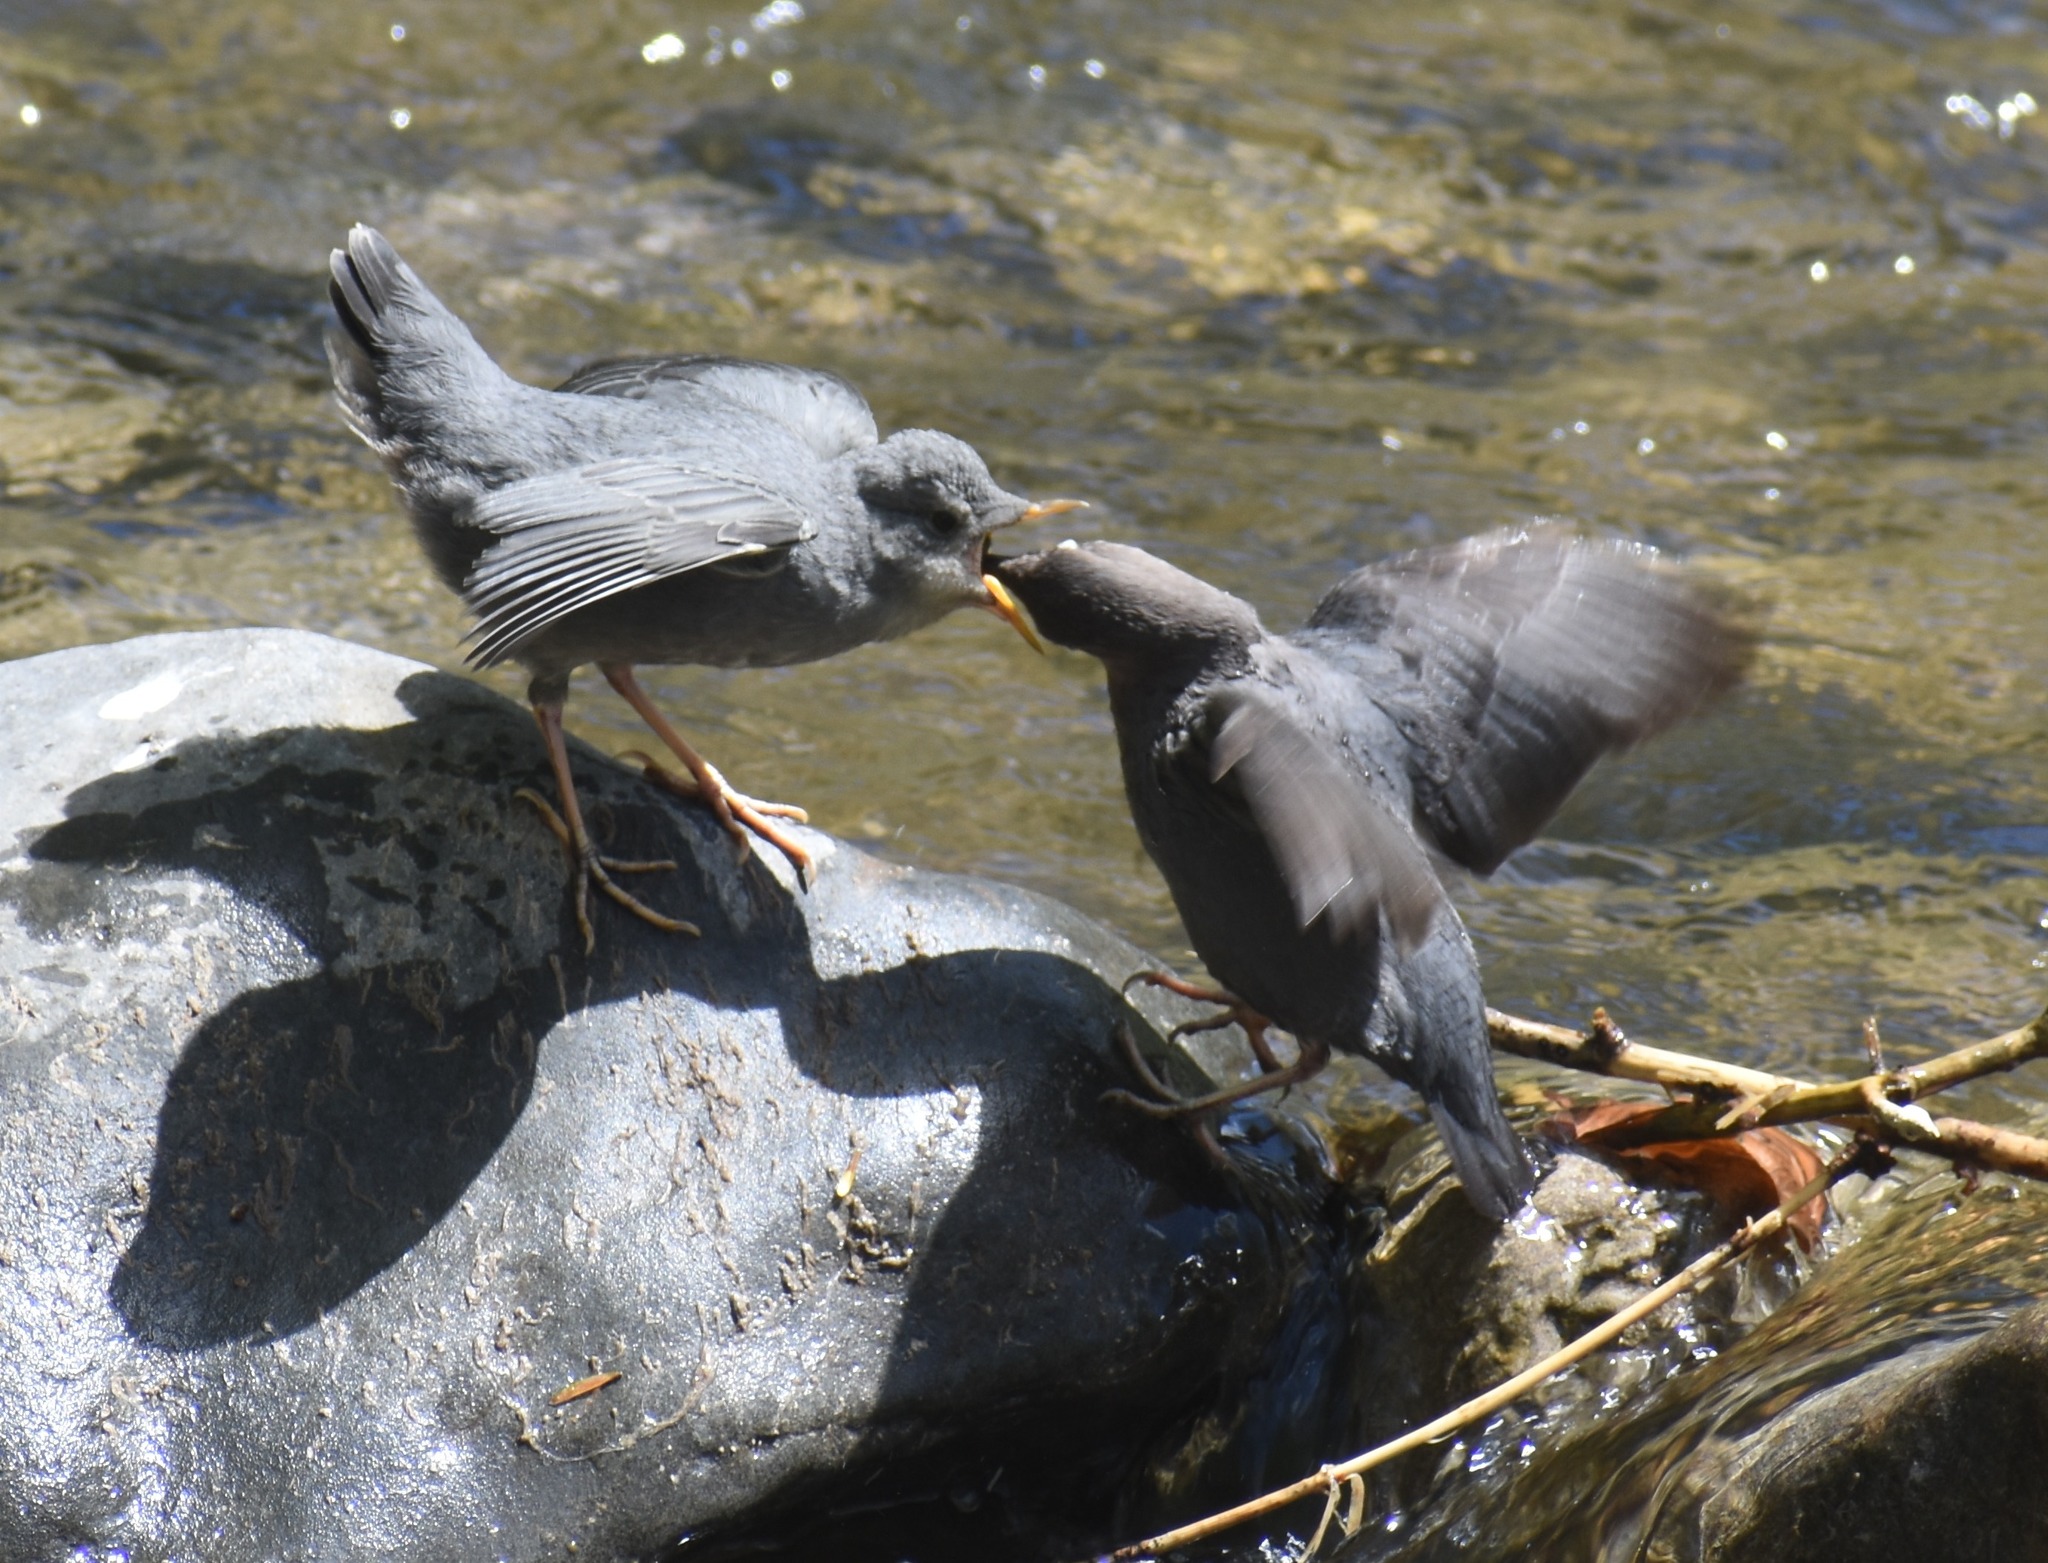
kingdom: Animalia
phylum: Chordata
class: Aves
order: Passeriformes
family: Cinclidae
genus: Cinclus
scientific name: Cinclus mexicanus
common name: American dipper
